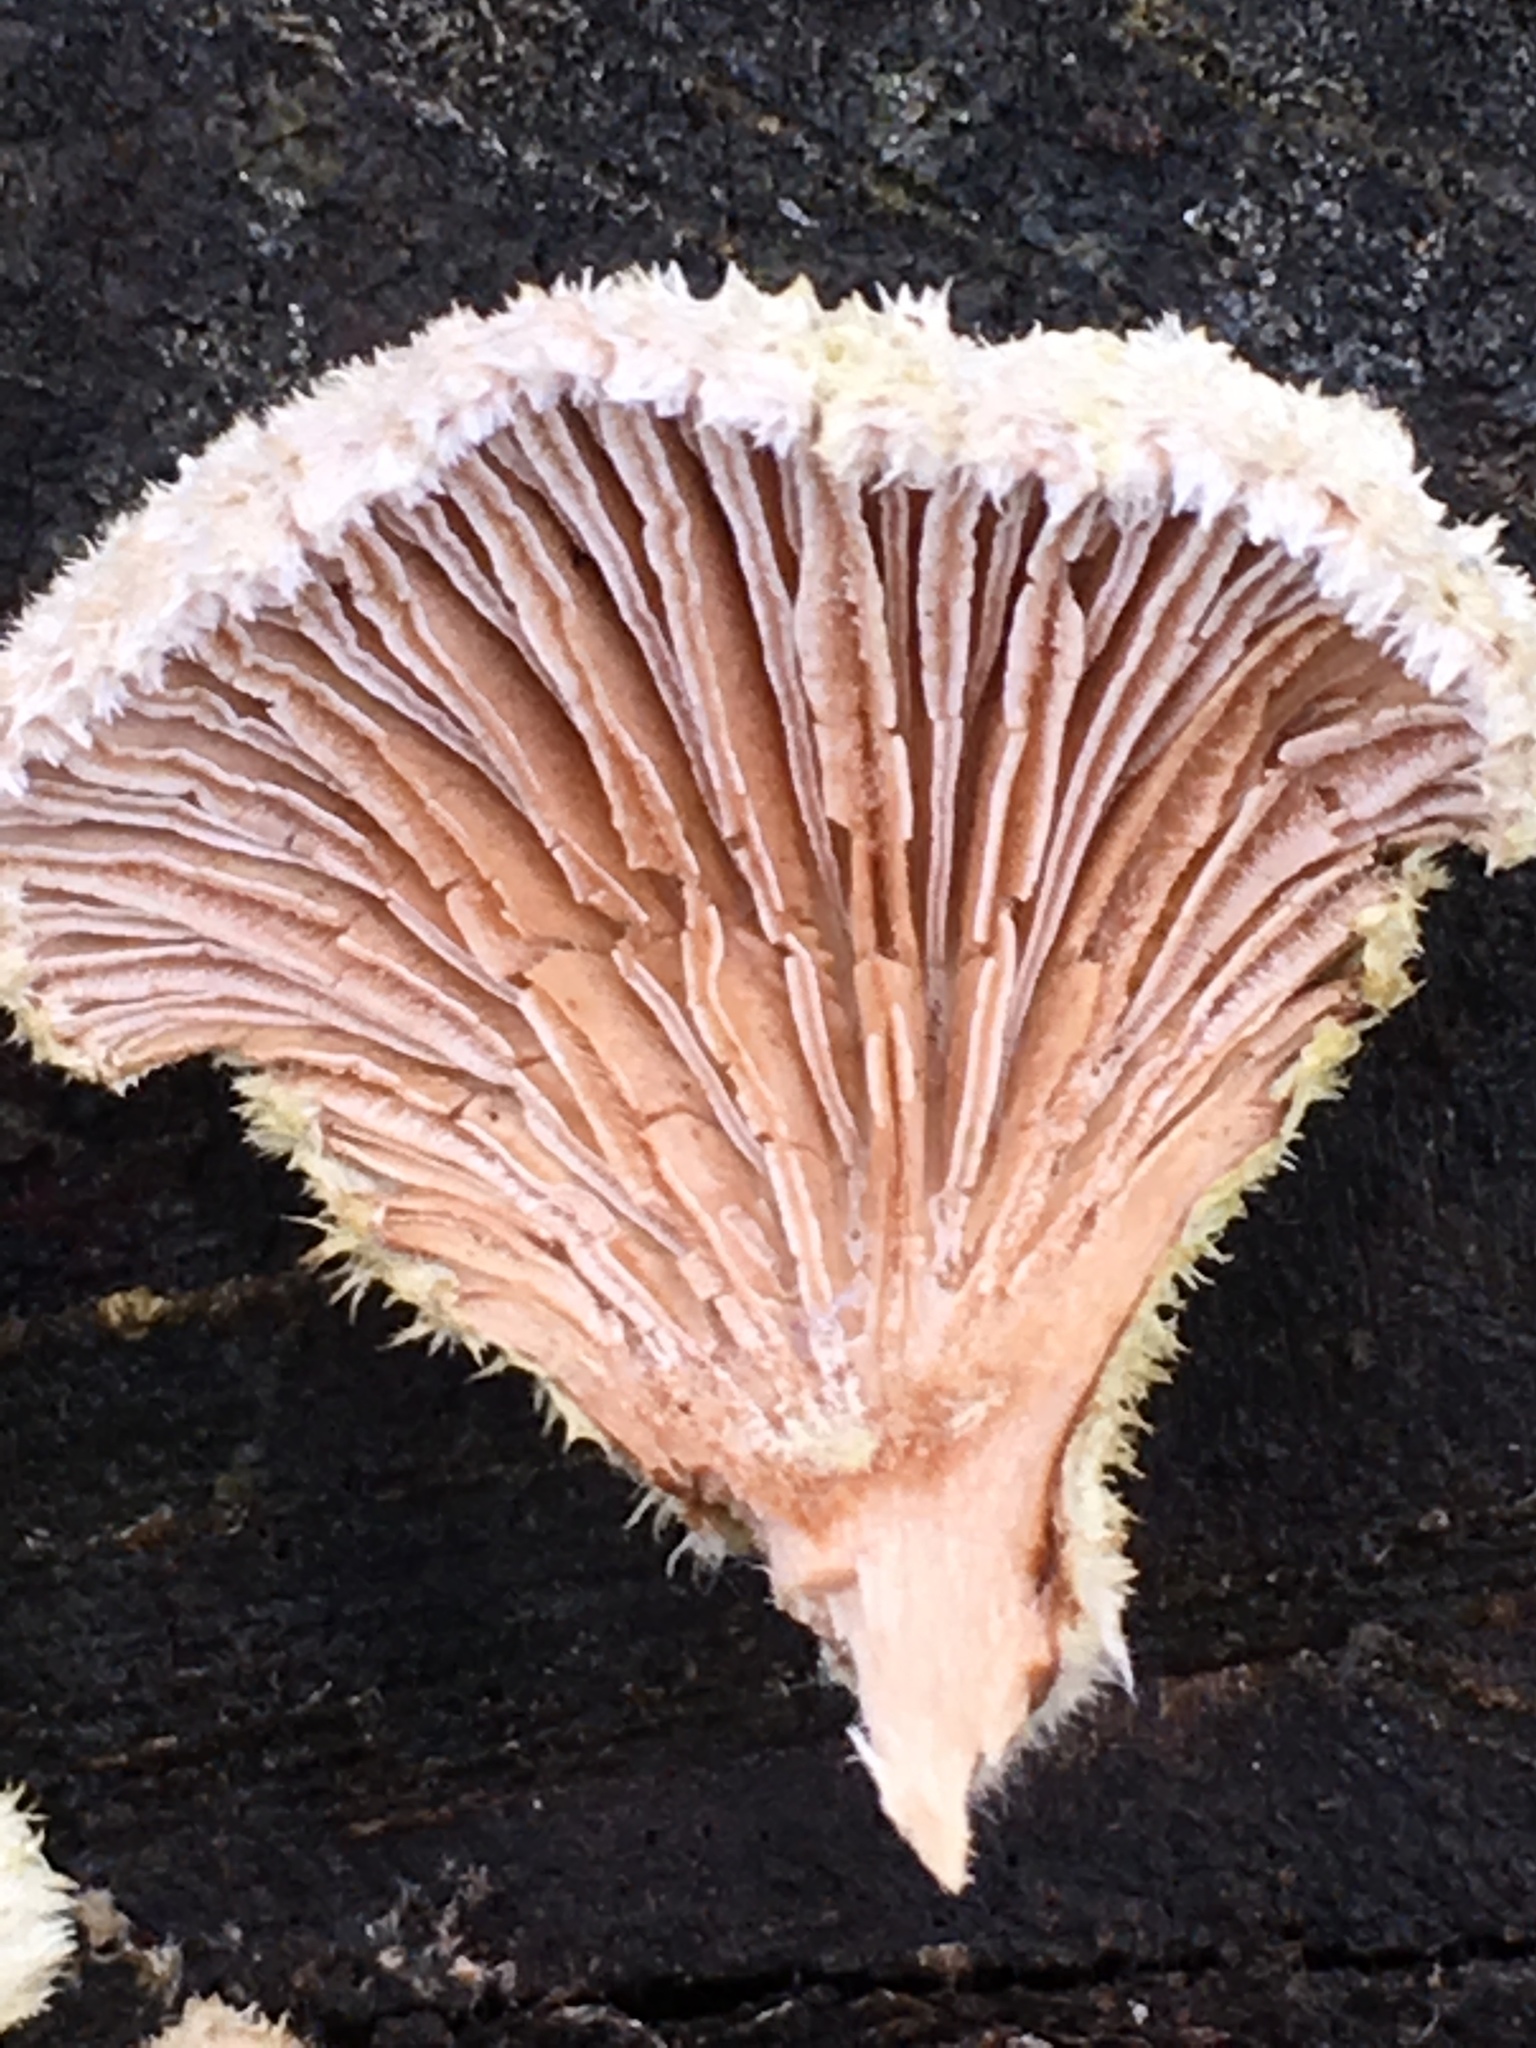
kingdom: Fungi
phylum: Basidiomycota
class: Agaricomycetes
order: Agaricales
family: Schizophyllaceae
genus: Schizophyllum
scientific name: Schizophyllum commune
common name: Common porecrust
